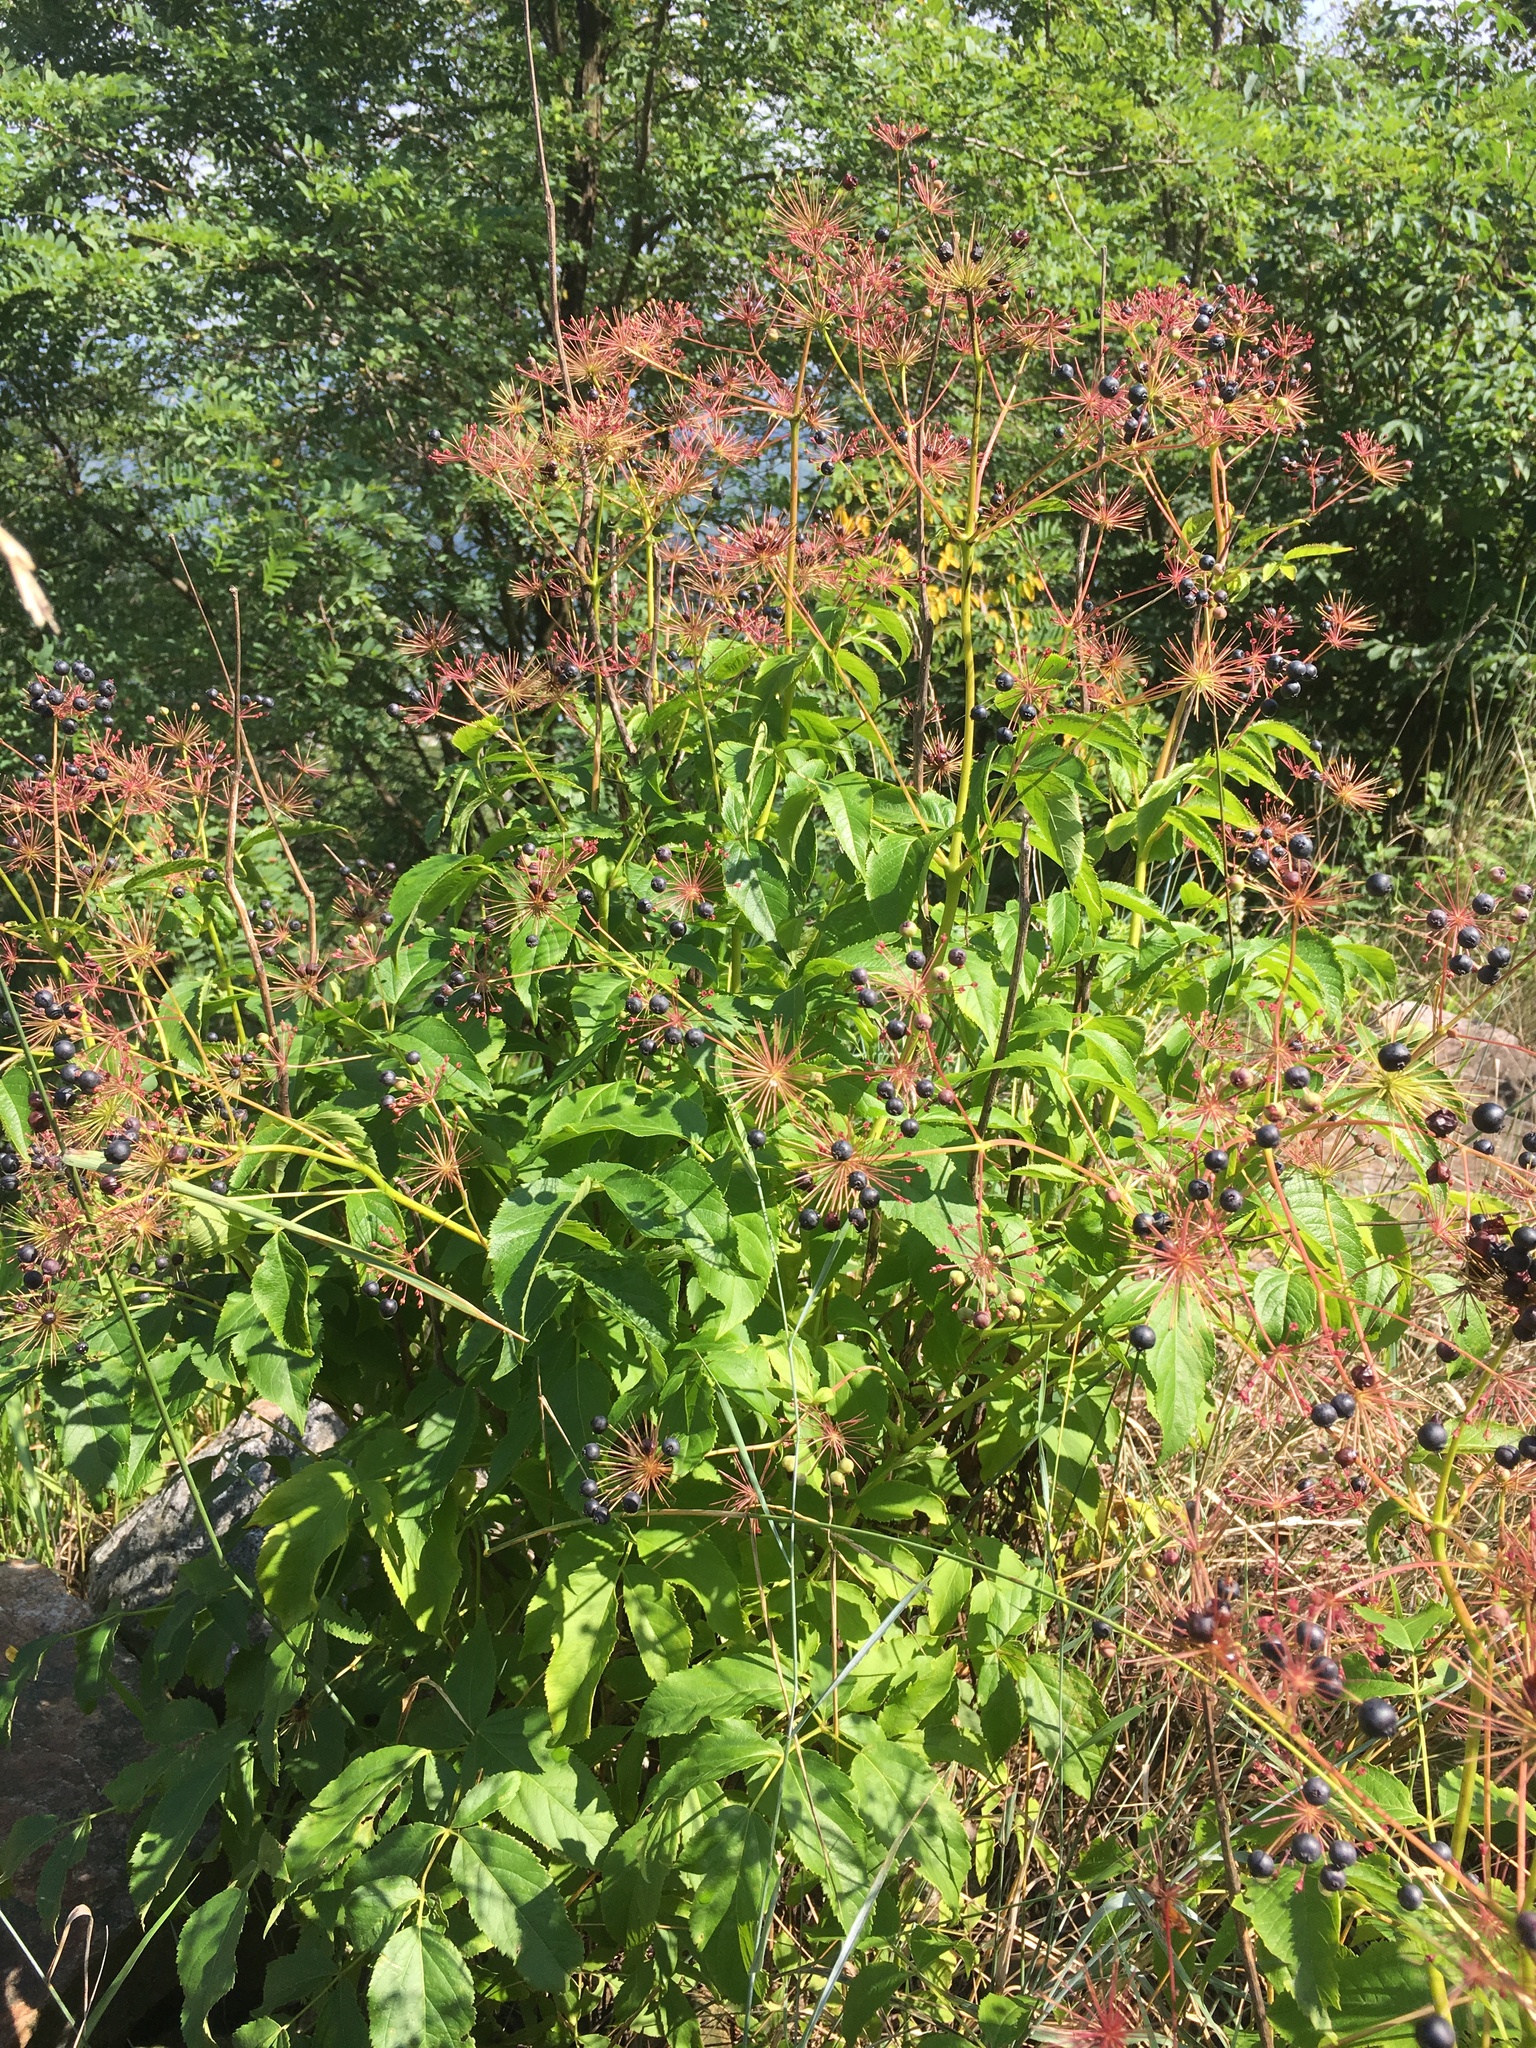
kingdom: Plantae
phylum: Tracheophyta
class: Magnoliopsida
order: Apiales
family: Araliaceae
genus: Aralia
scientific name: Aralia hispida
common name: Bristly sarsaparilla
